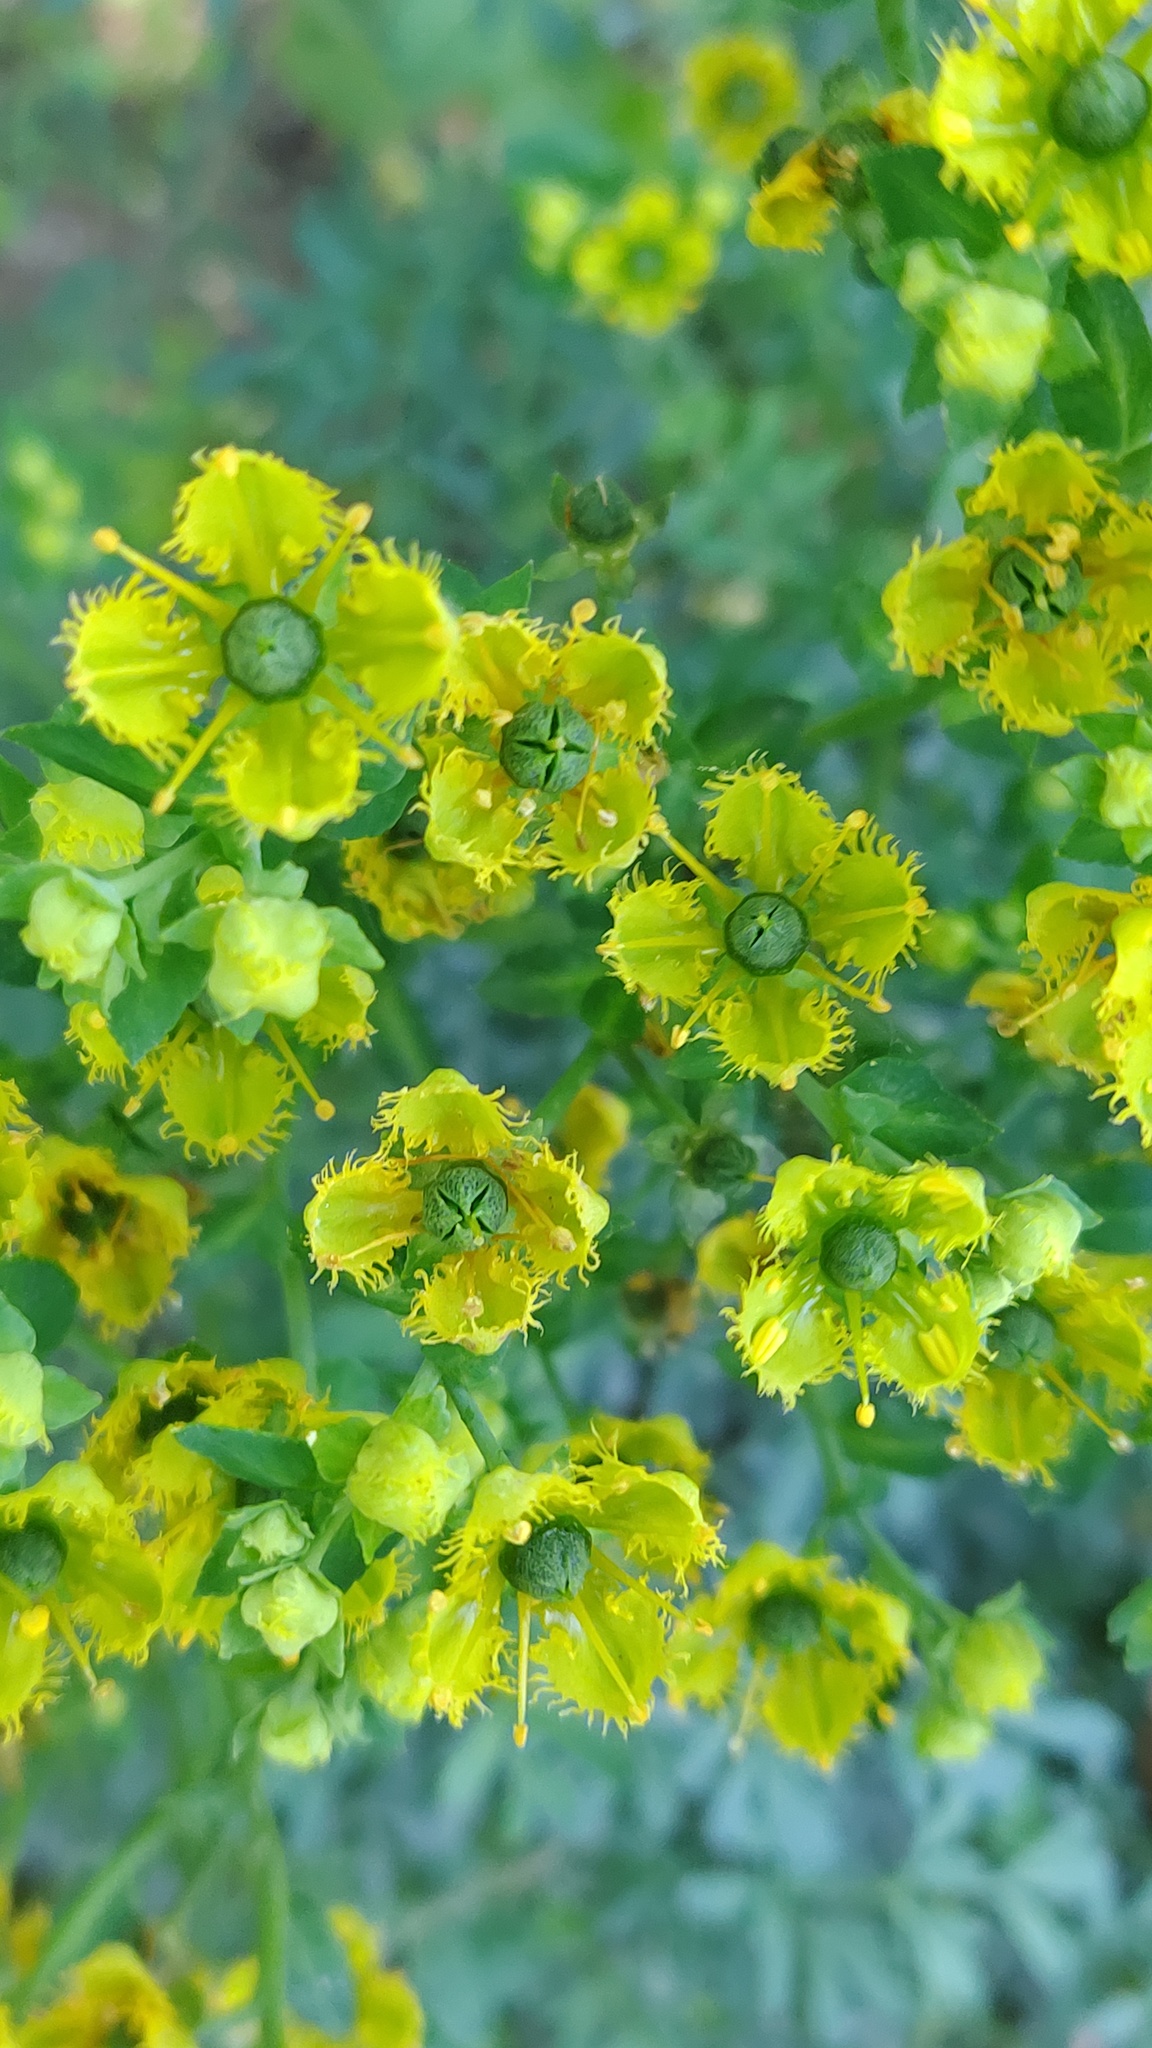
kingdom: Plantae
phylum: Tracheophyta
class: Magnoliopsida
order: Sapindales
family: Rutaceae
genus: Ruta
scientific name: Ruta chalepensis
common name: Fringed rue
